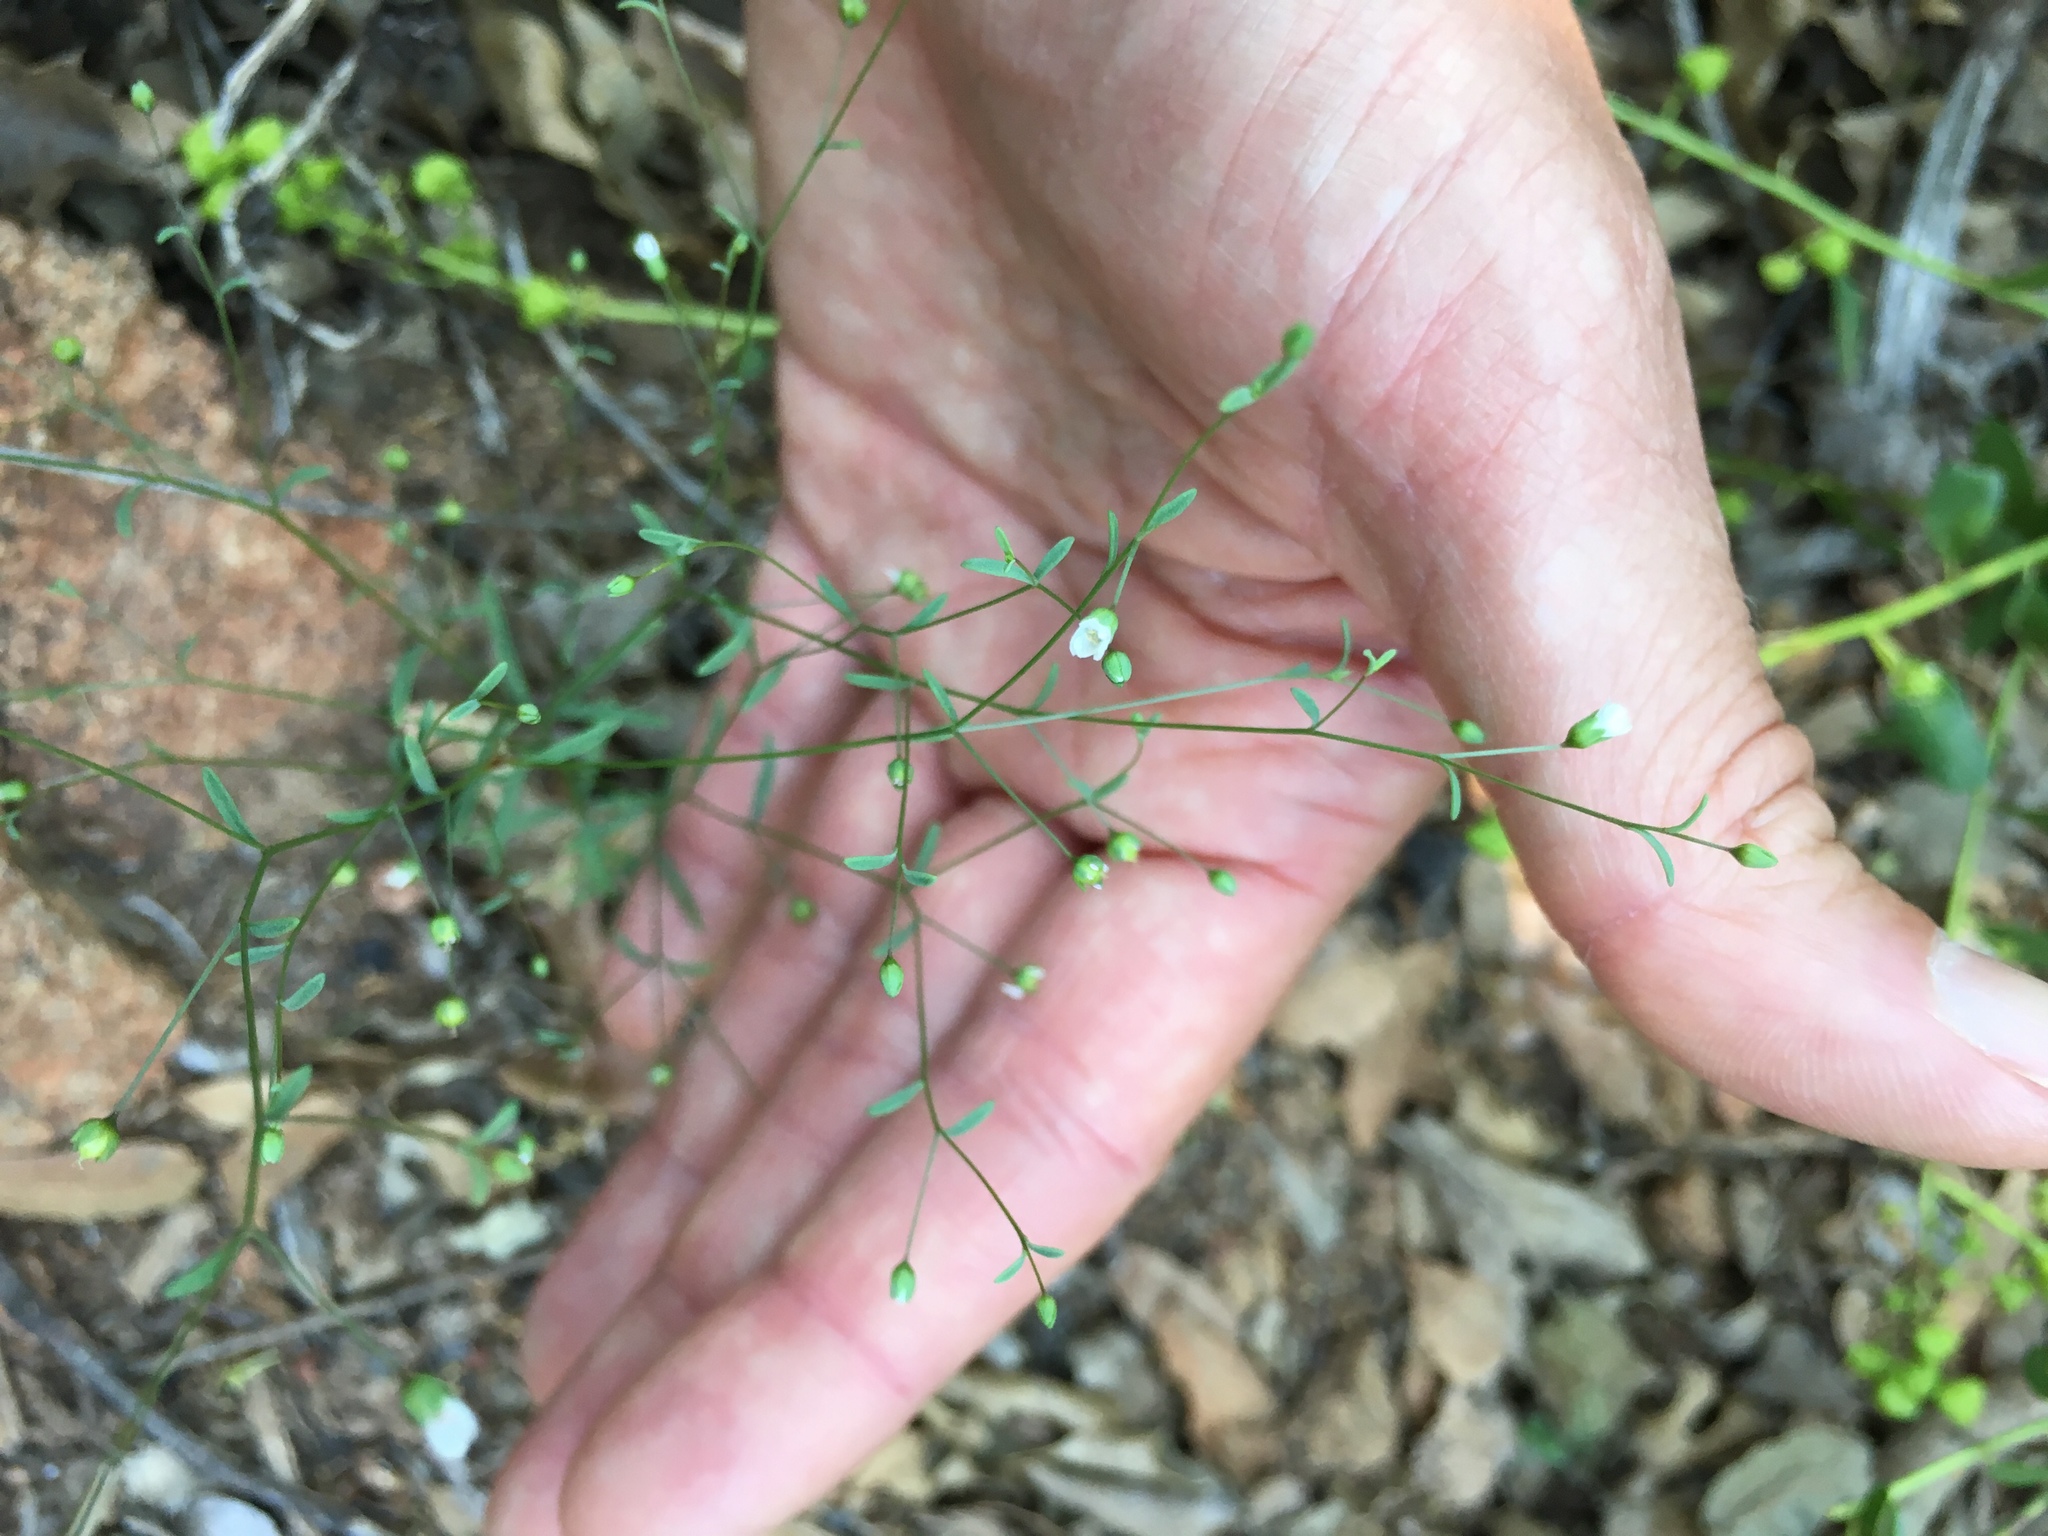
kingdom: Plantae
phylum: Tracheophyta
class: Magnoliopsida
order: Malpighiales
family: Linaceae
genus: Hesperolinon
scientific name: Hesperolinon micranthum
